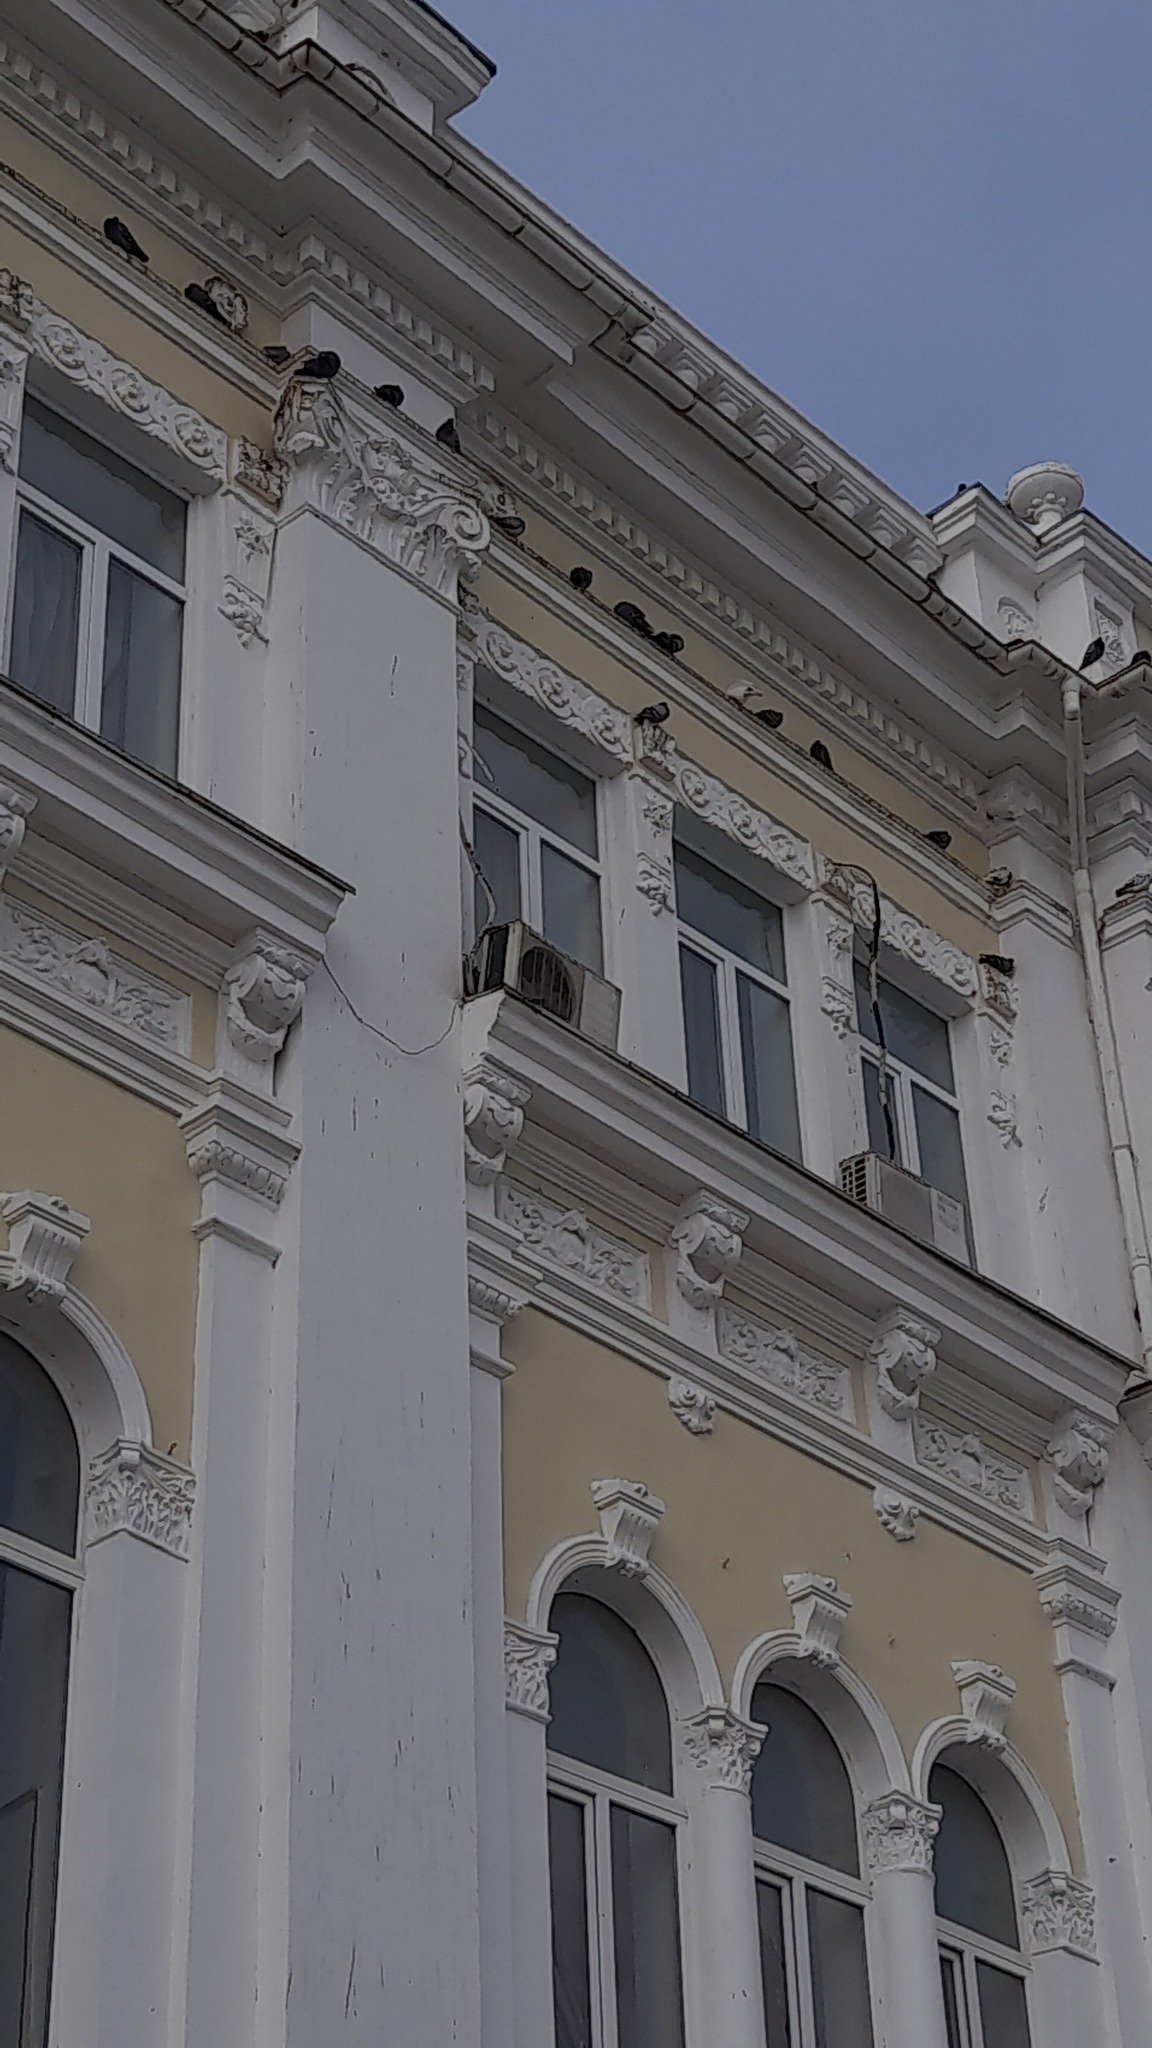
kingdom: Animalia
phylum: Chordata
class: Aves
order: Columbiformes
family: Columbidae
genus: Columba
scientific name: Columba livia
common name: Rock pigeon
